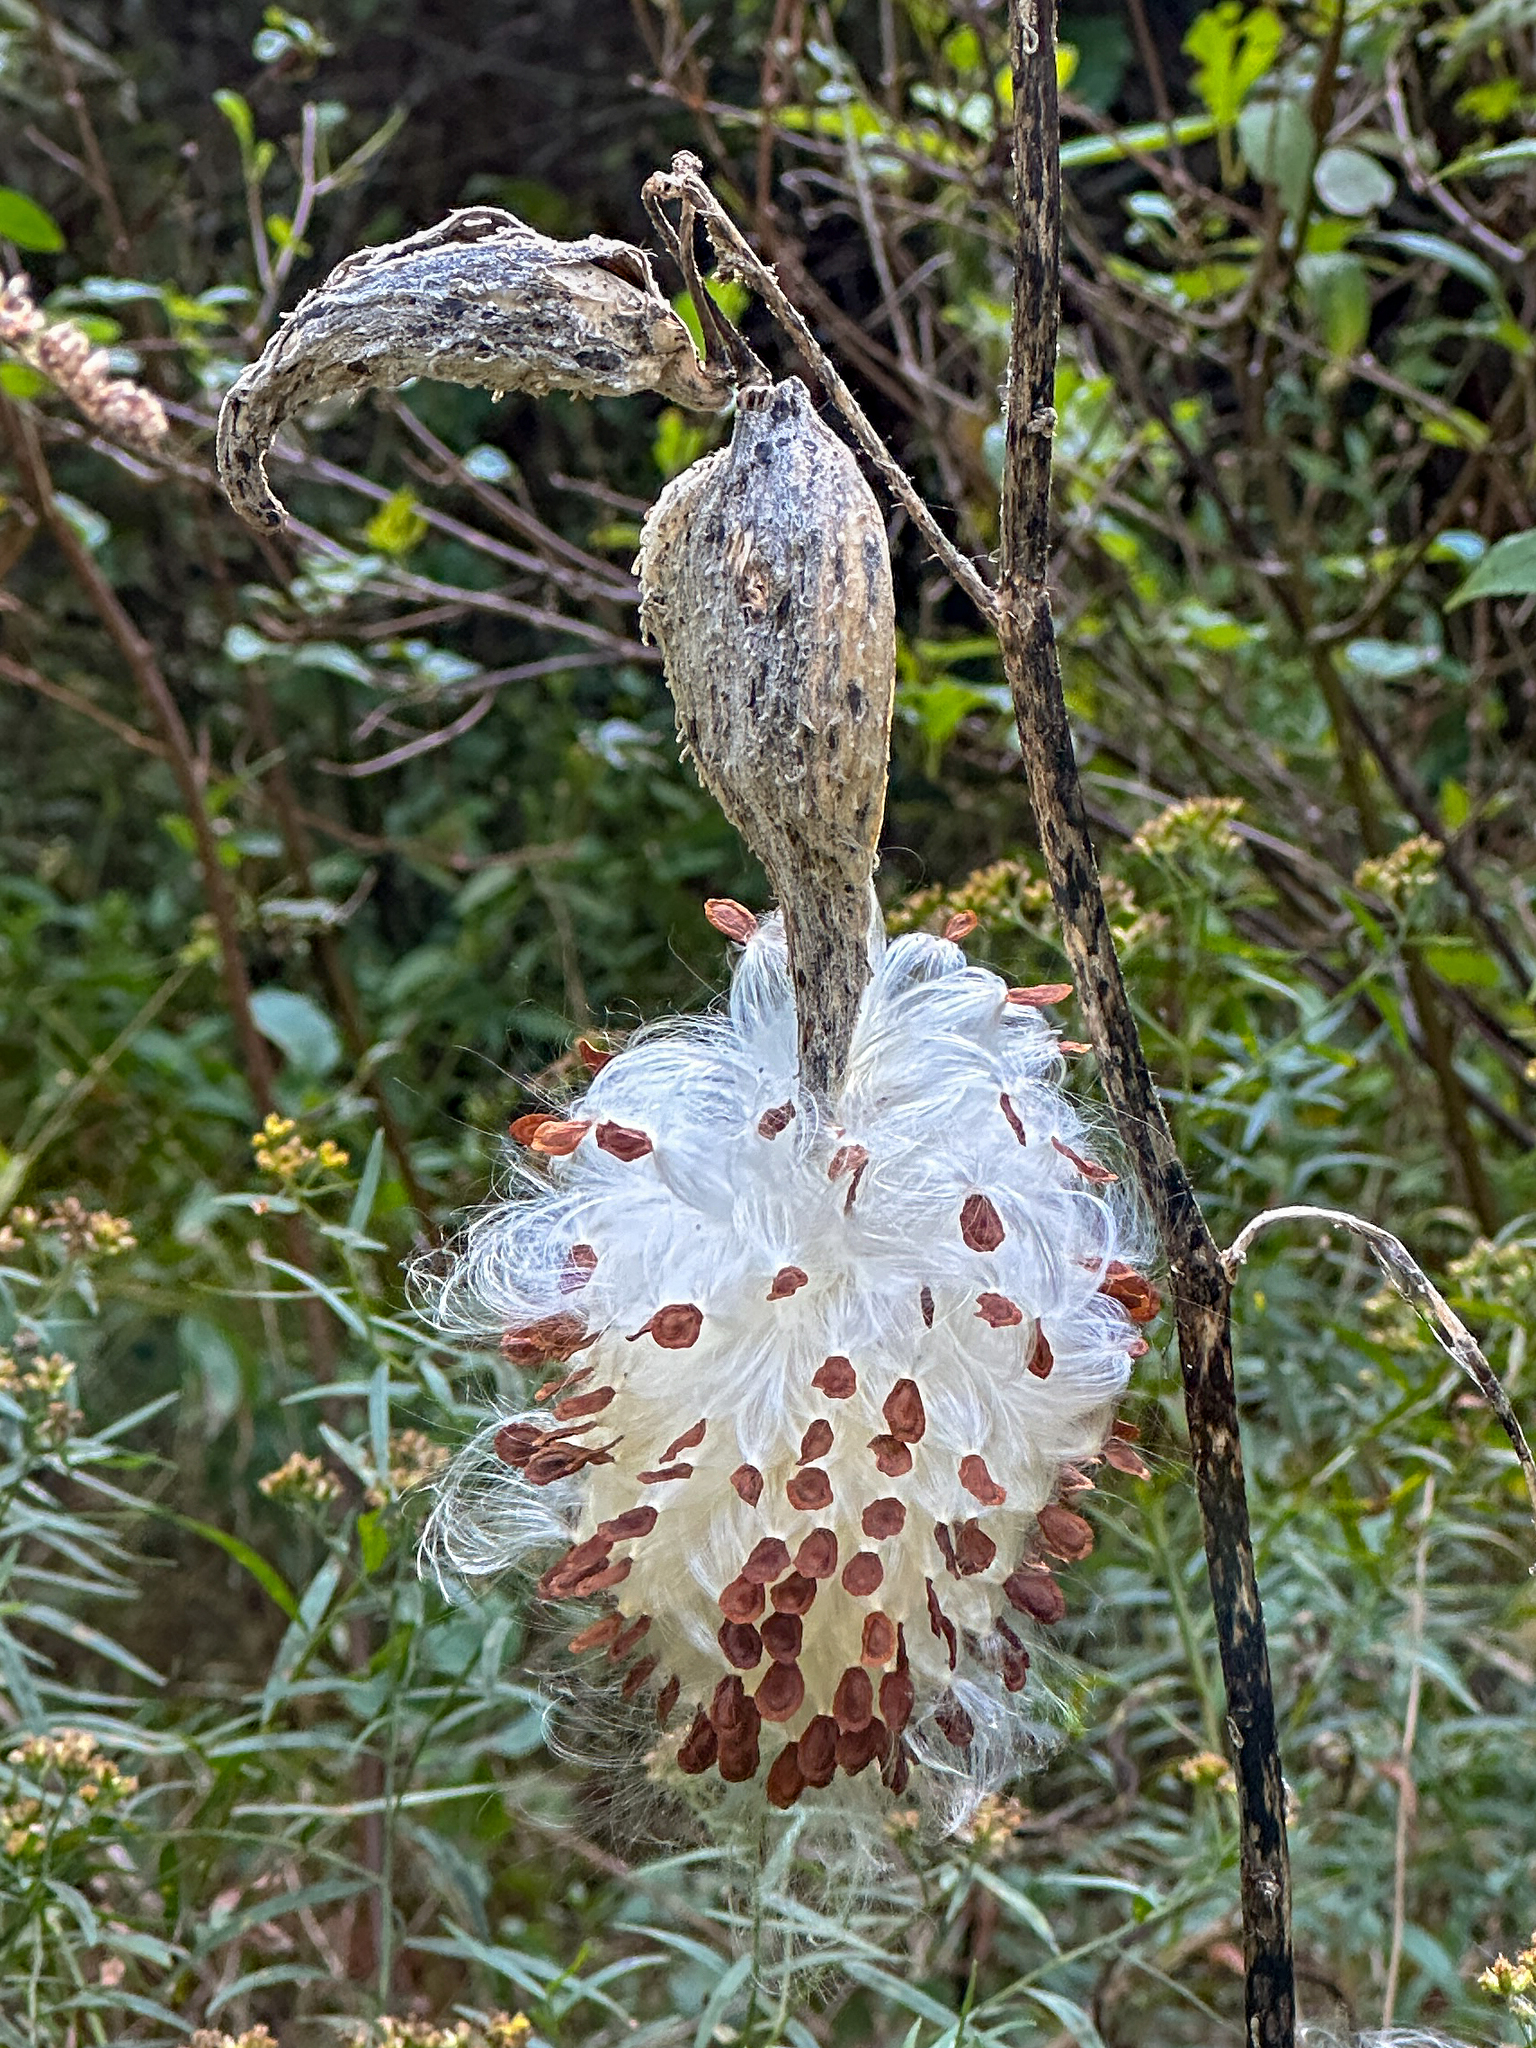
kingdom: Plantae
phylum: Tracheophyta
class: Magnoliopsida
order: Gentianales
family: Apocynaceae
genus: Asclepias
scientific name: Asclepias syriaca
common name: Common milkweed
